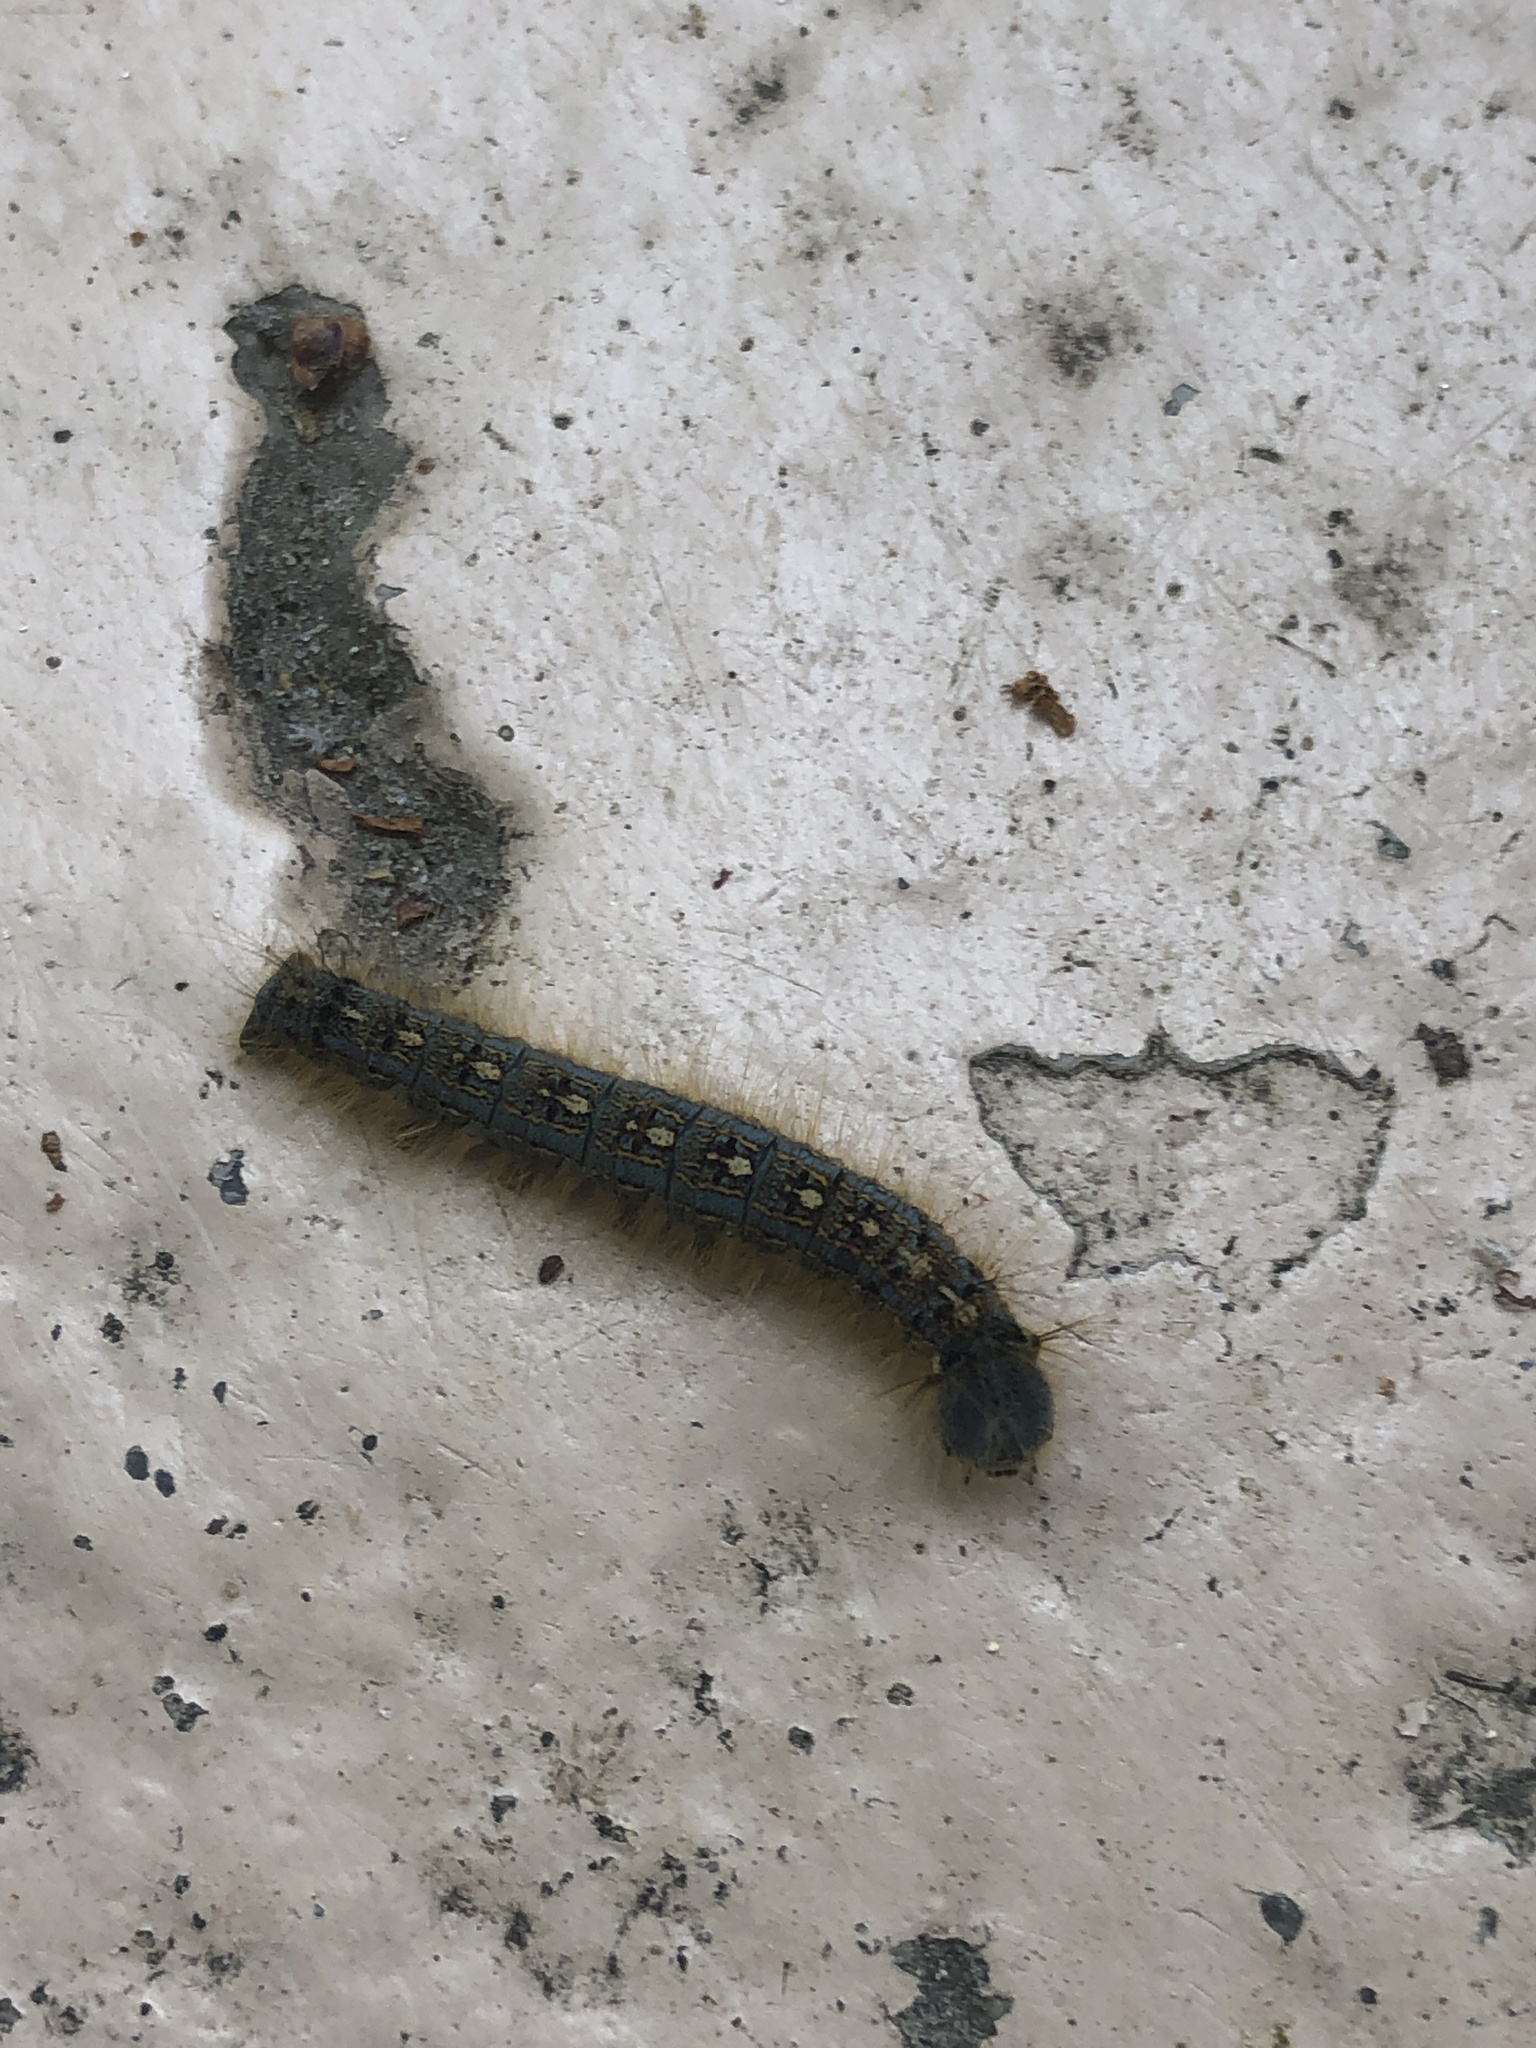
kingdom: Animalia
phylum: Arthropoda
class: Insecta
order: Lepidoptera
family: Lasiocampidae
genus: Malacosoma
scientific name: Malacosoma disstria
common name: Forest tent caterpillar
